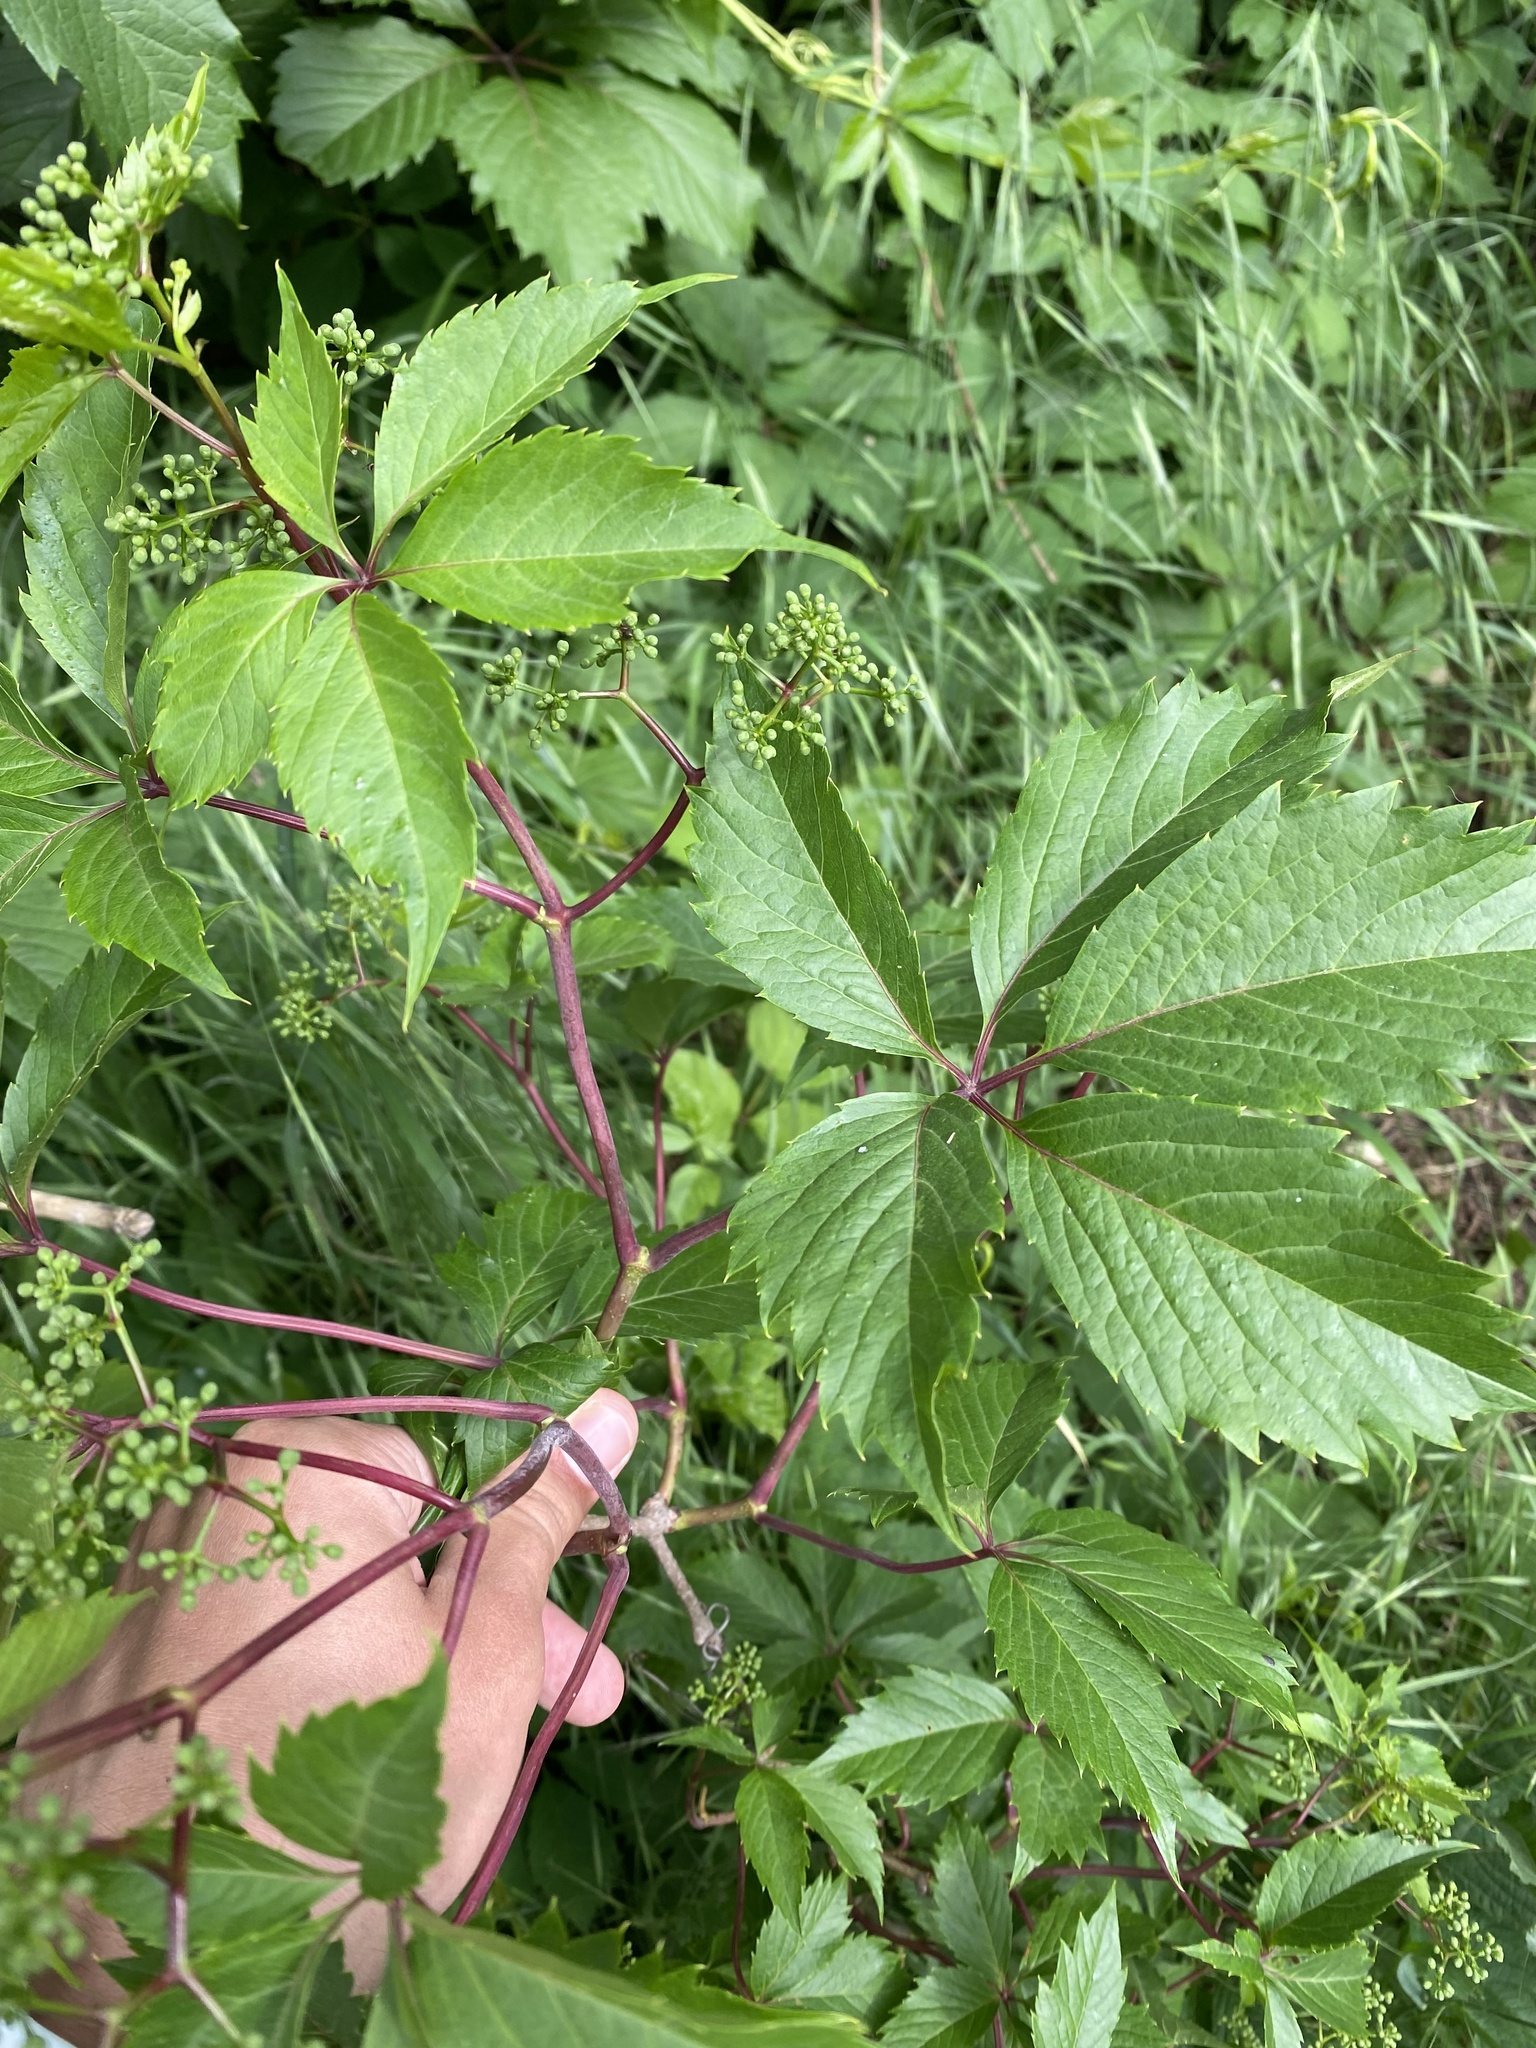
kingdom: Plantae
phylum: Tracheophyta
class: Magnoliopsida
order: Vitales
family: Vitaceae
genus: Parthenocissus
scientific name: Parthenocissus inserta
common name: False virginia-creeper
